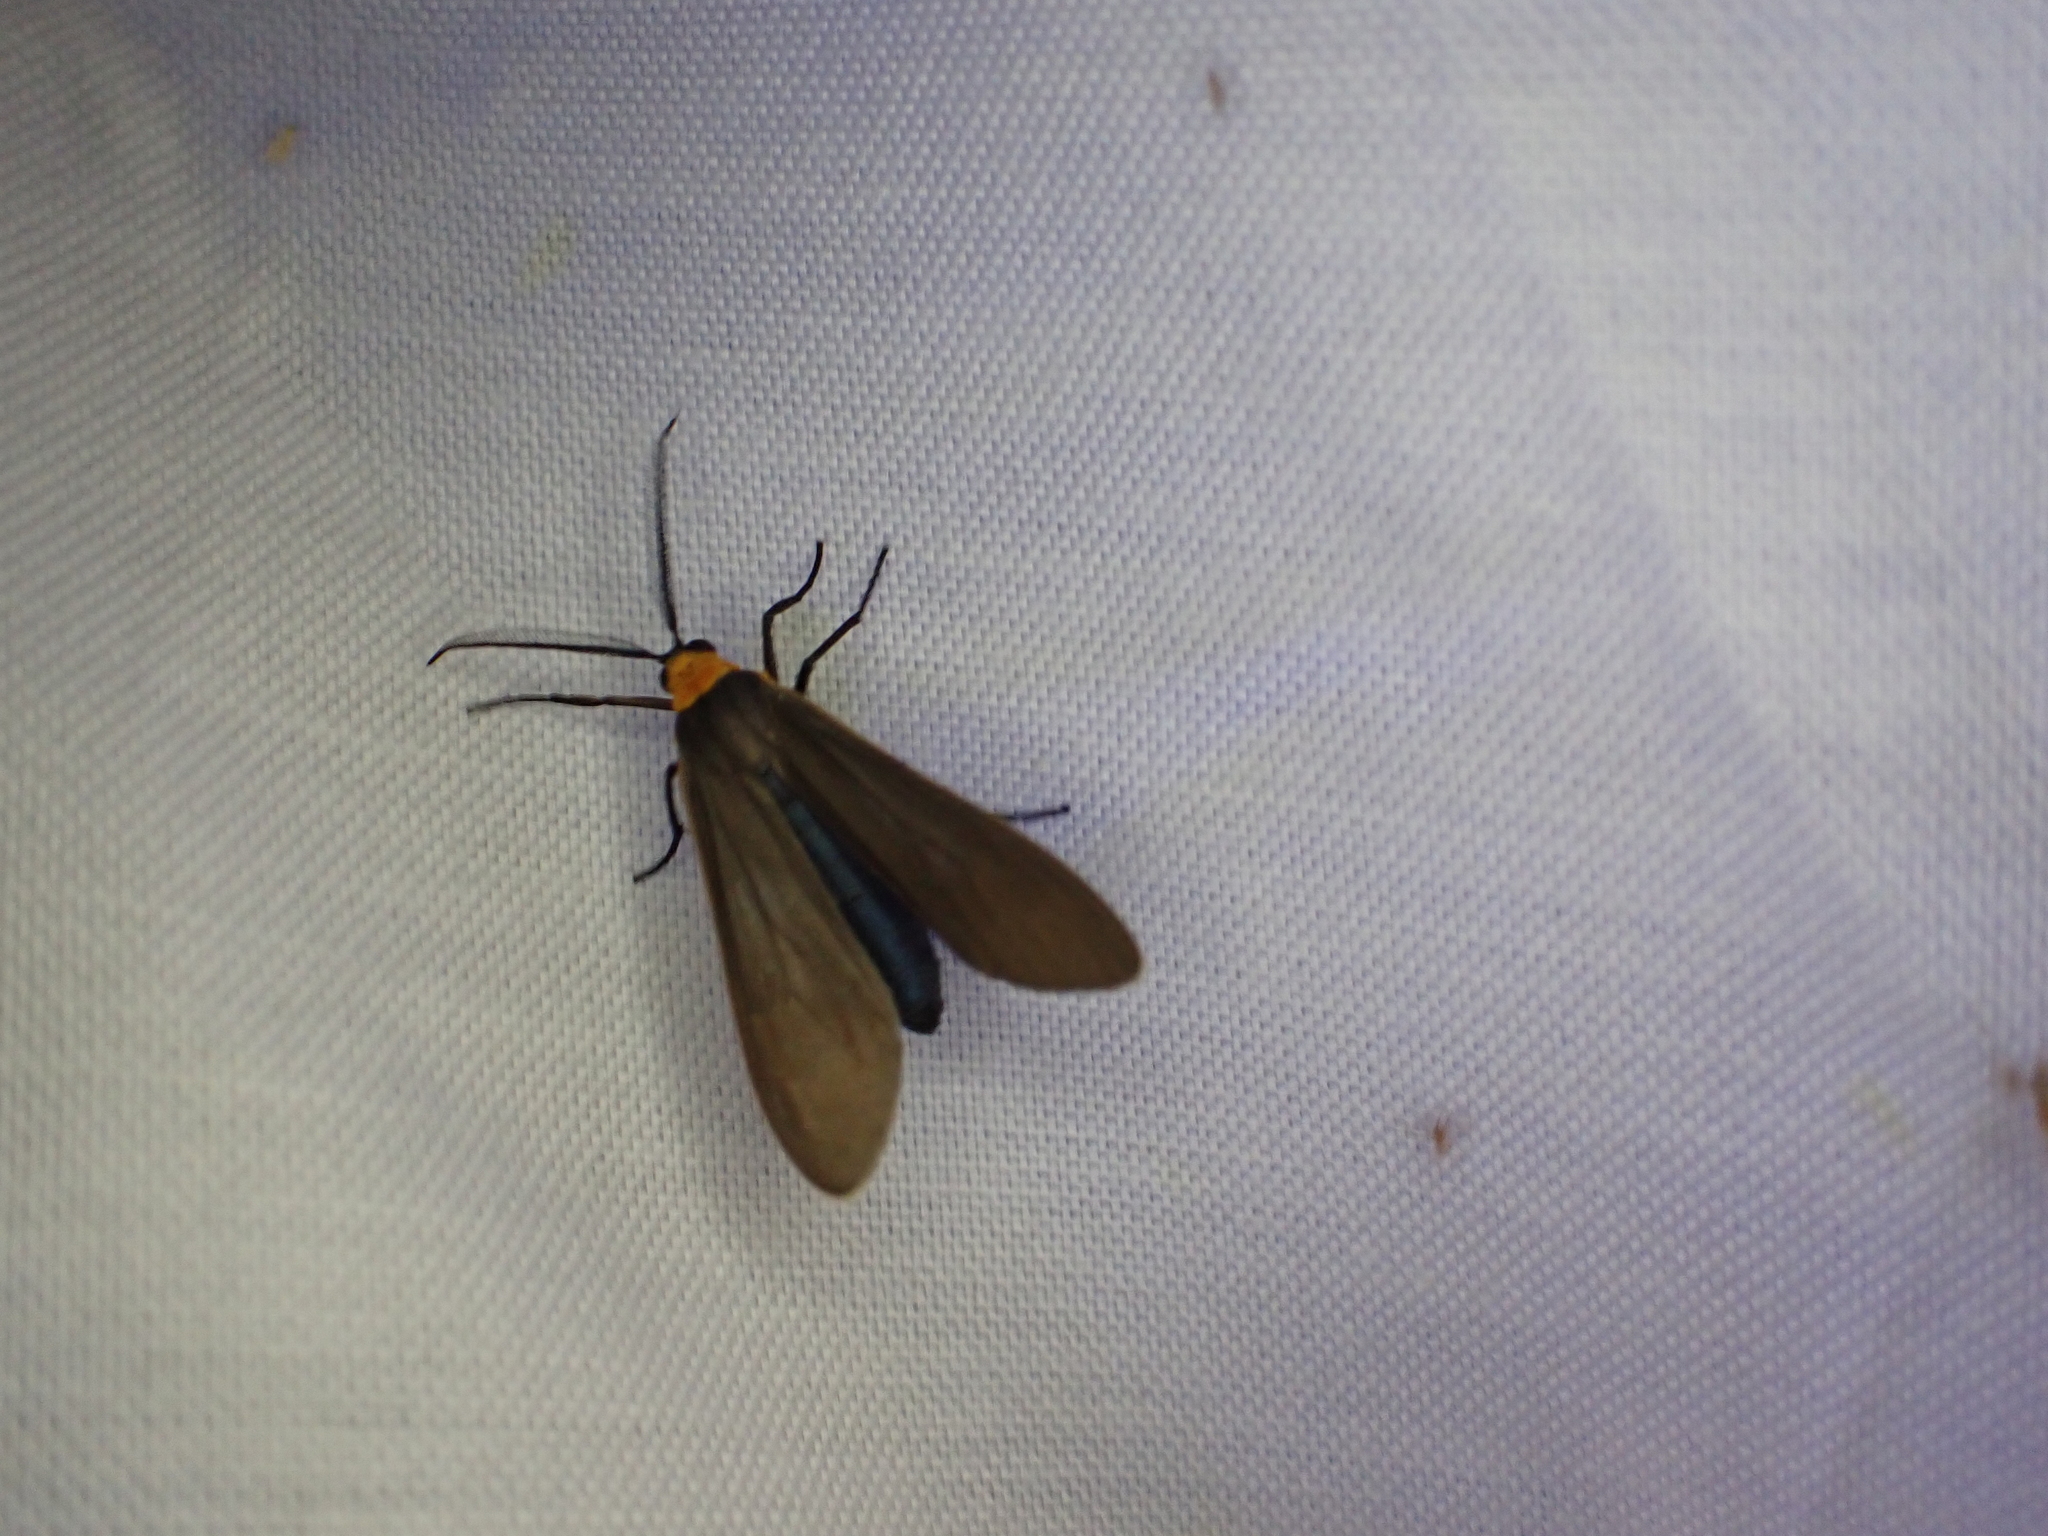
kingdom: Animalia
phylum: Arthropoda
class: Insecta
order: Lepidoptera
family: Erebidae
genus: Cisseps
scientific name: Cisseps fulvicollis
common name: Yellow-collared scape moth
